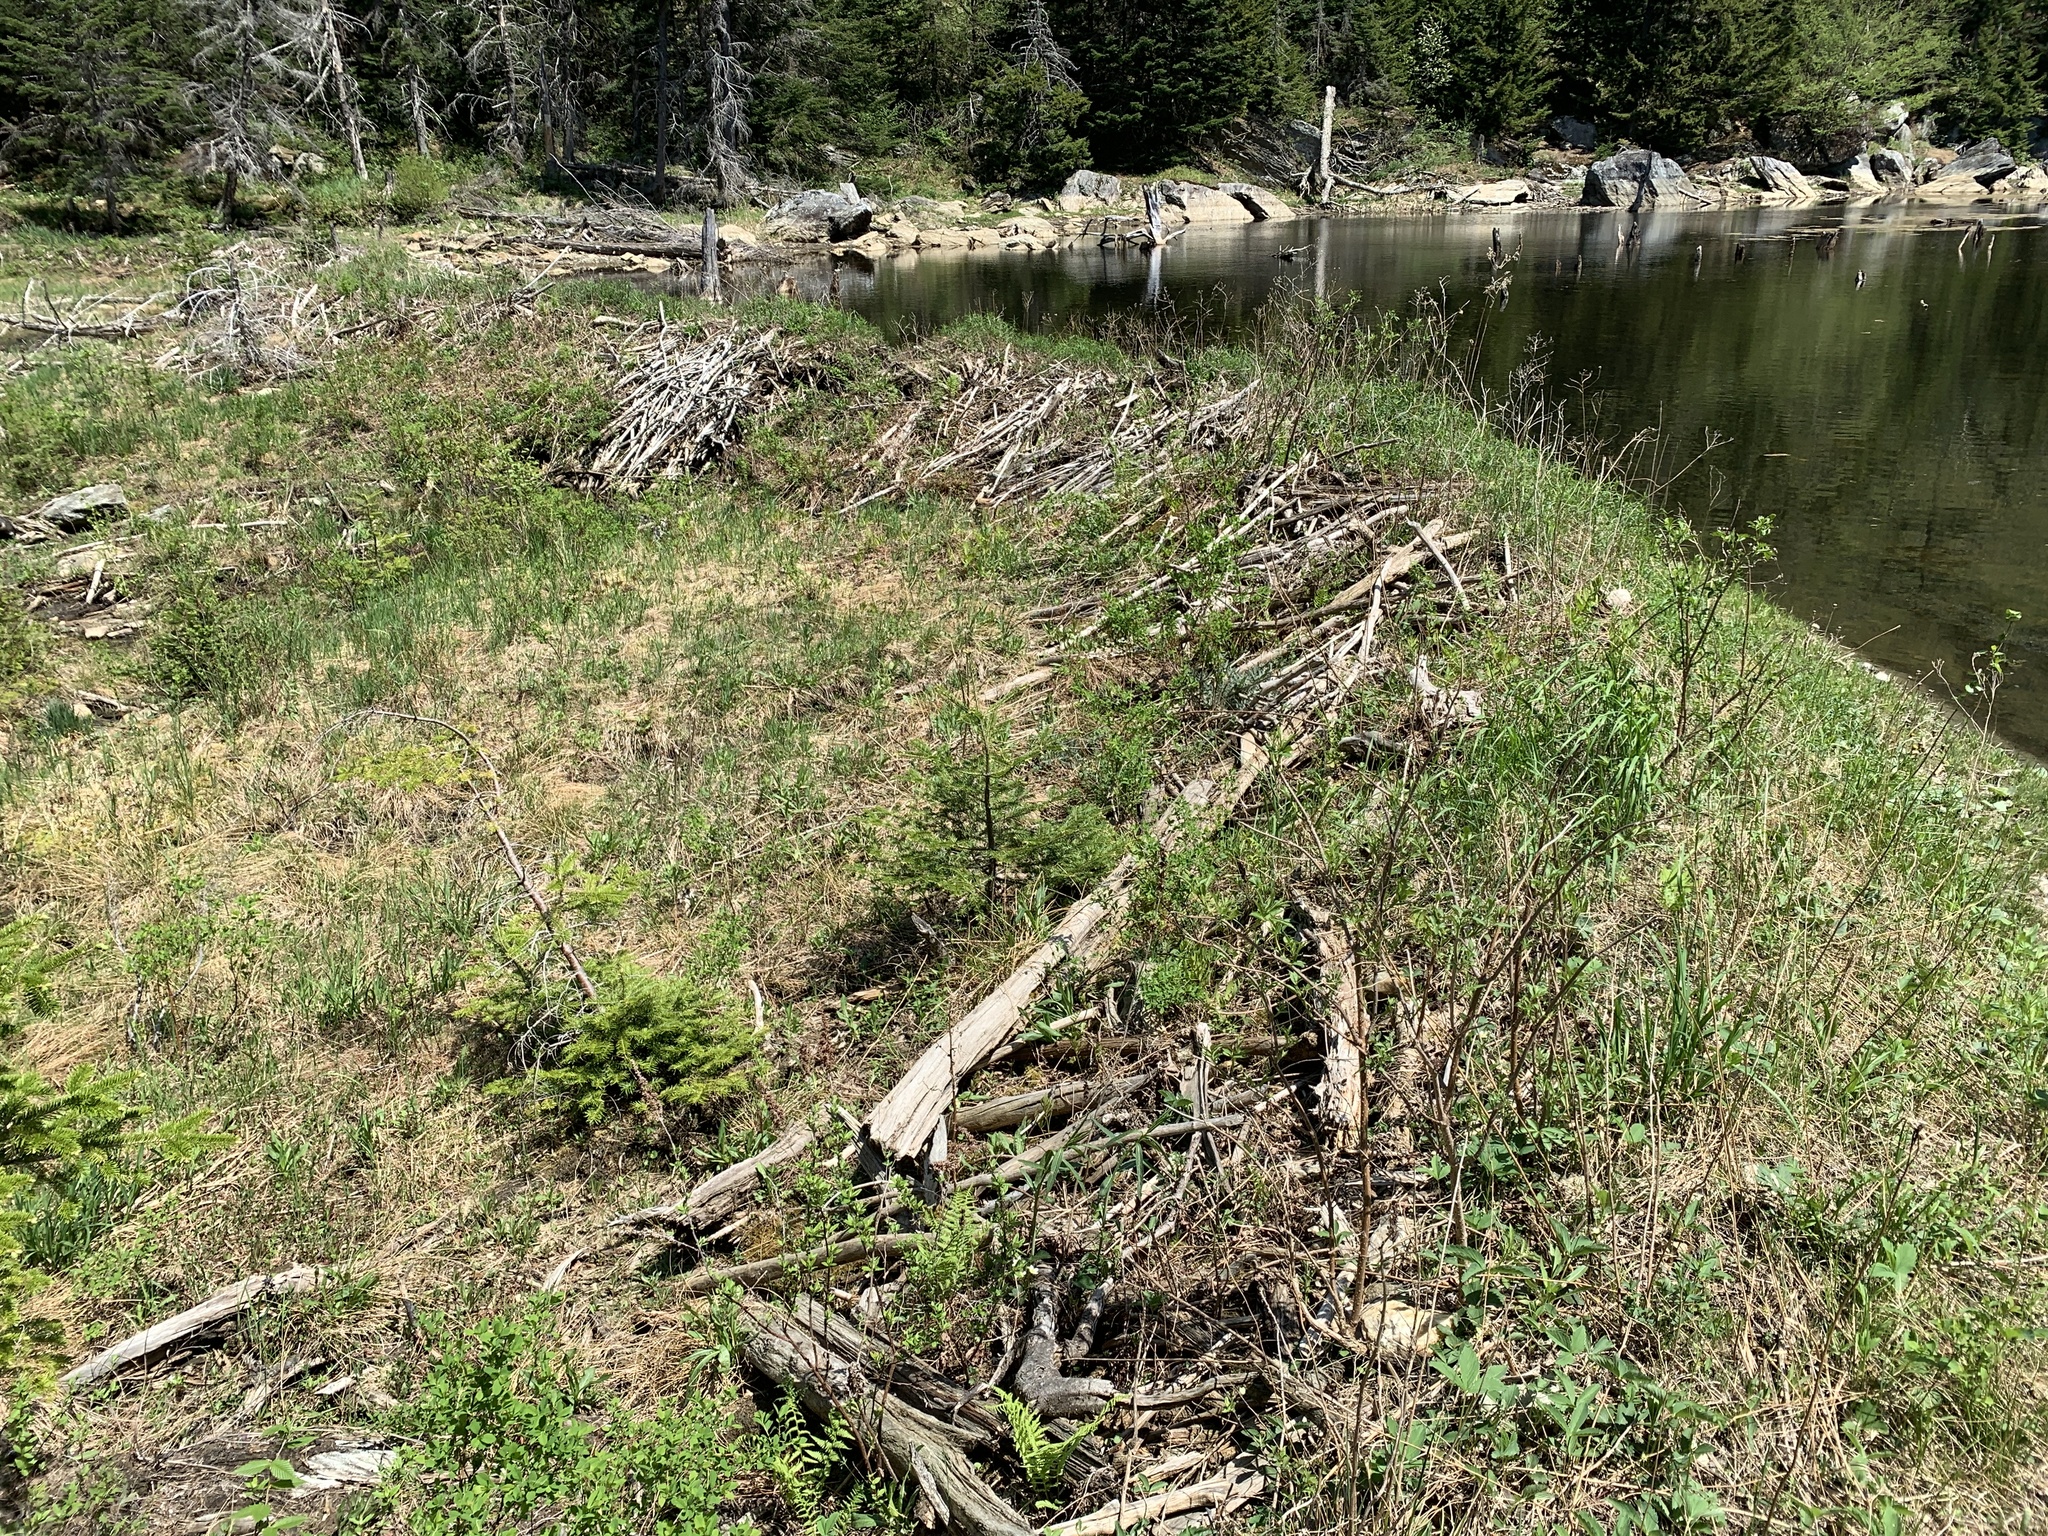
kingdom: Animalia
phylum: Chordata
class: Mammalia
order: Rodentia
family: Castoridae
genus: Castor
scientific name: Castor canadensis
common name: American beaver
